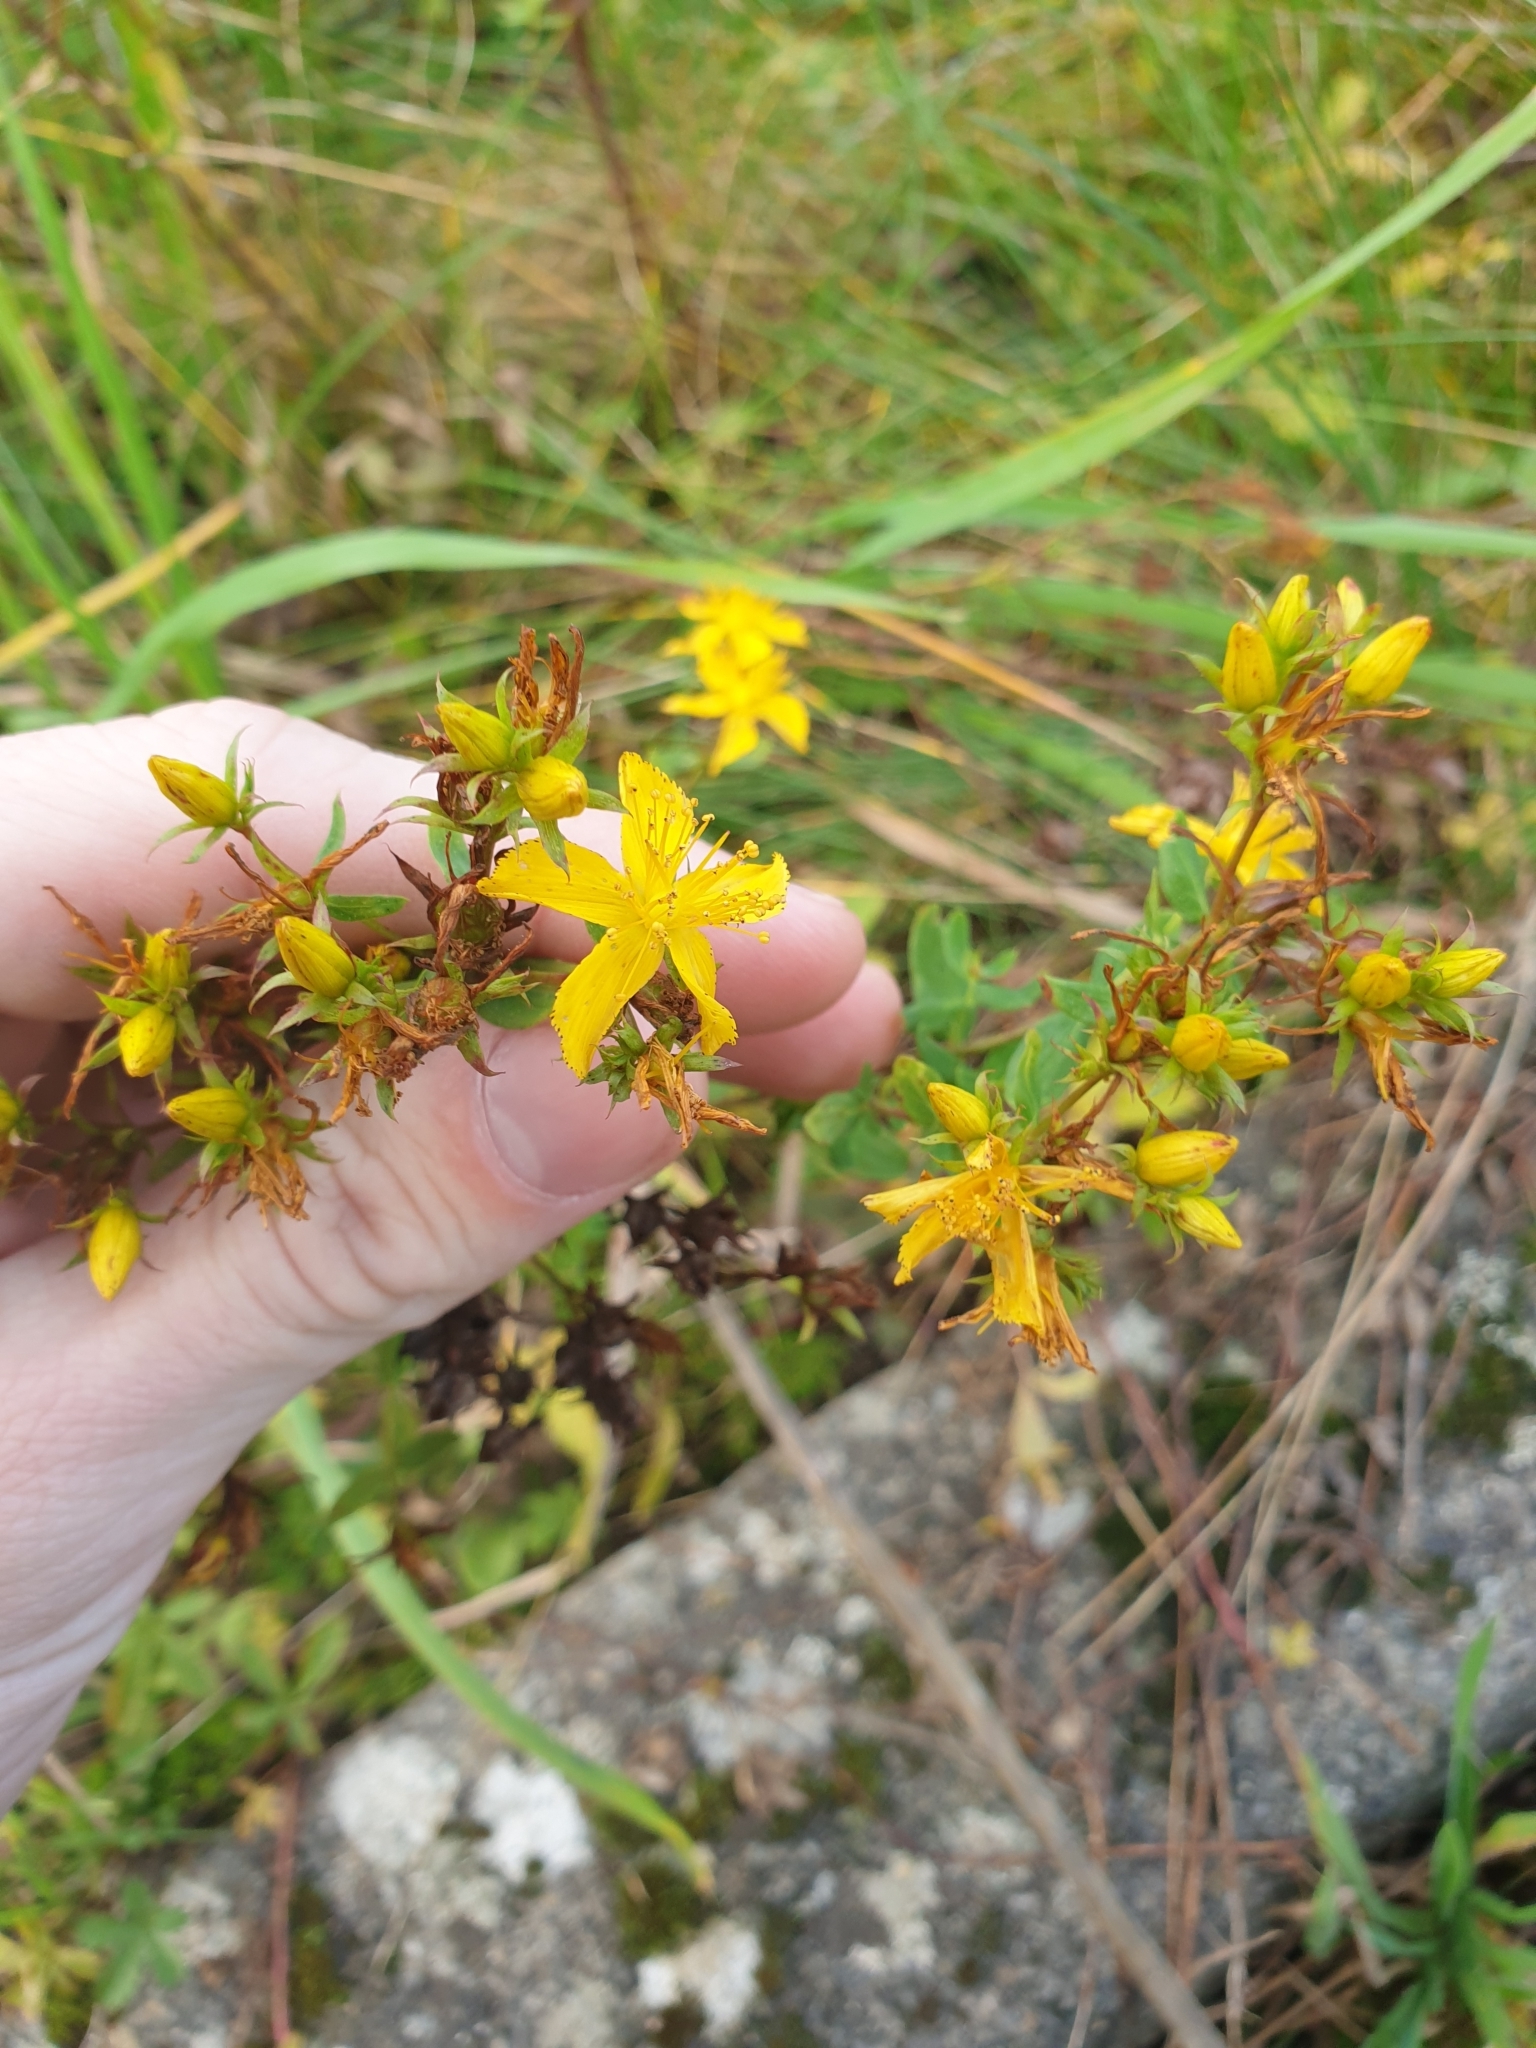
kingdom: Plantae
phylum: Tracheophyta
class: Magnoliopsida
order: Malpighiales
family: Hypericaceae
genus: Hypericum
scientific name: Hypericum perforatum
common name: Common st. johnswort
